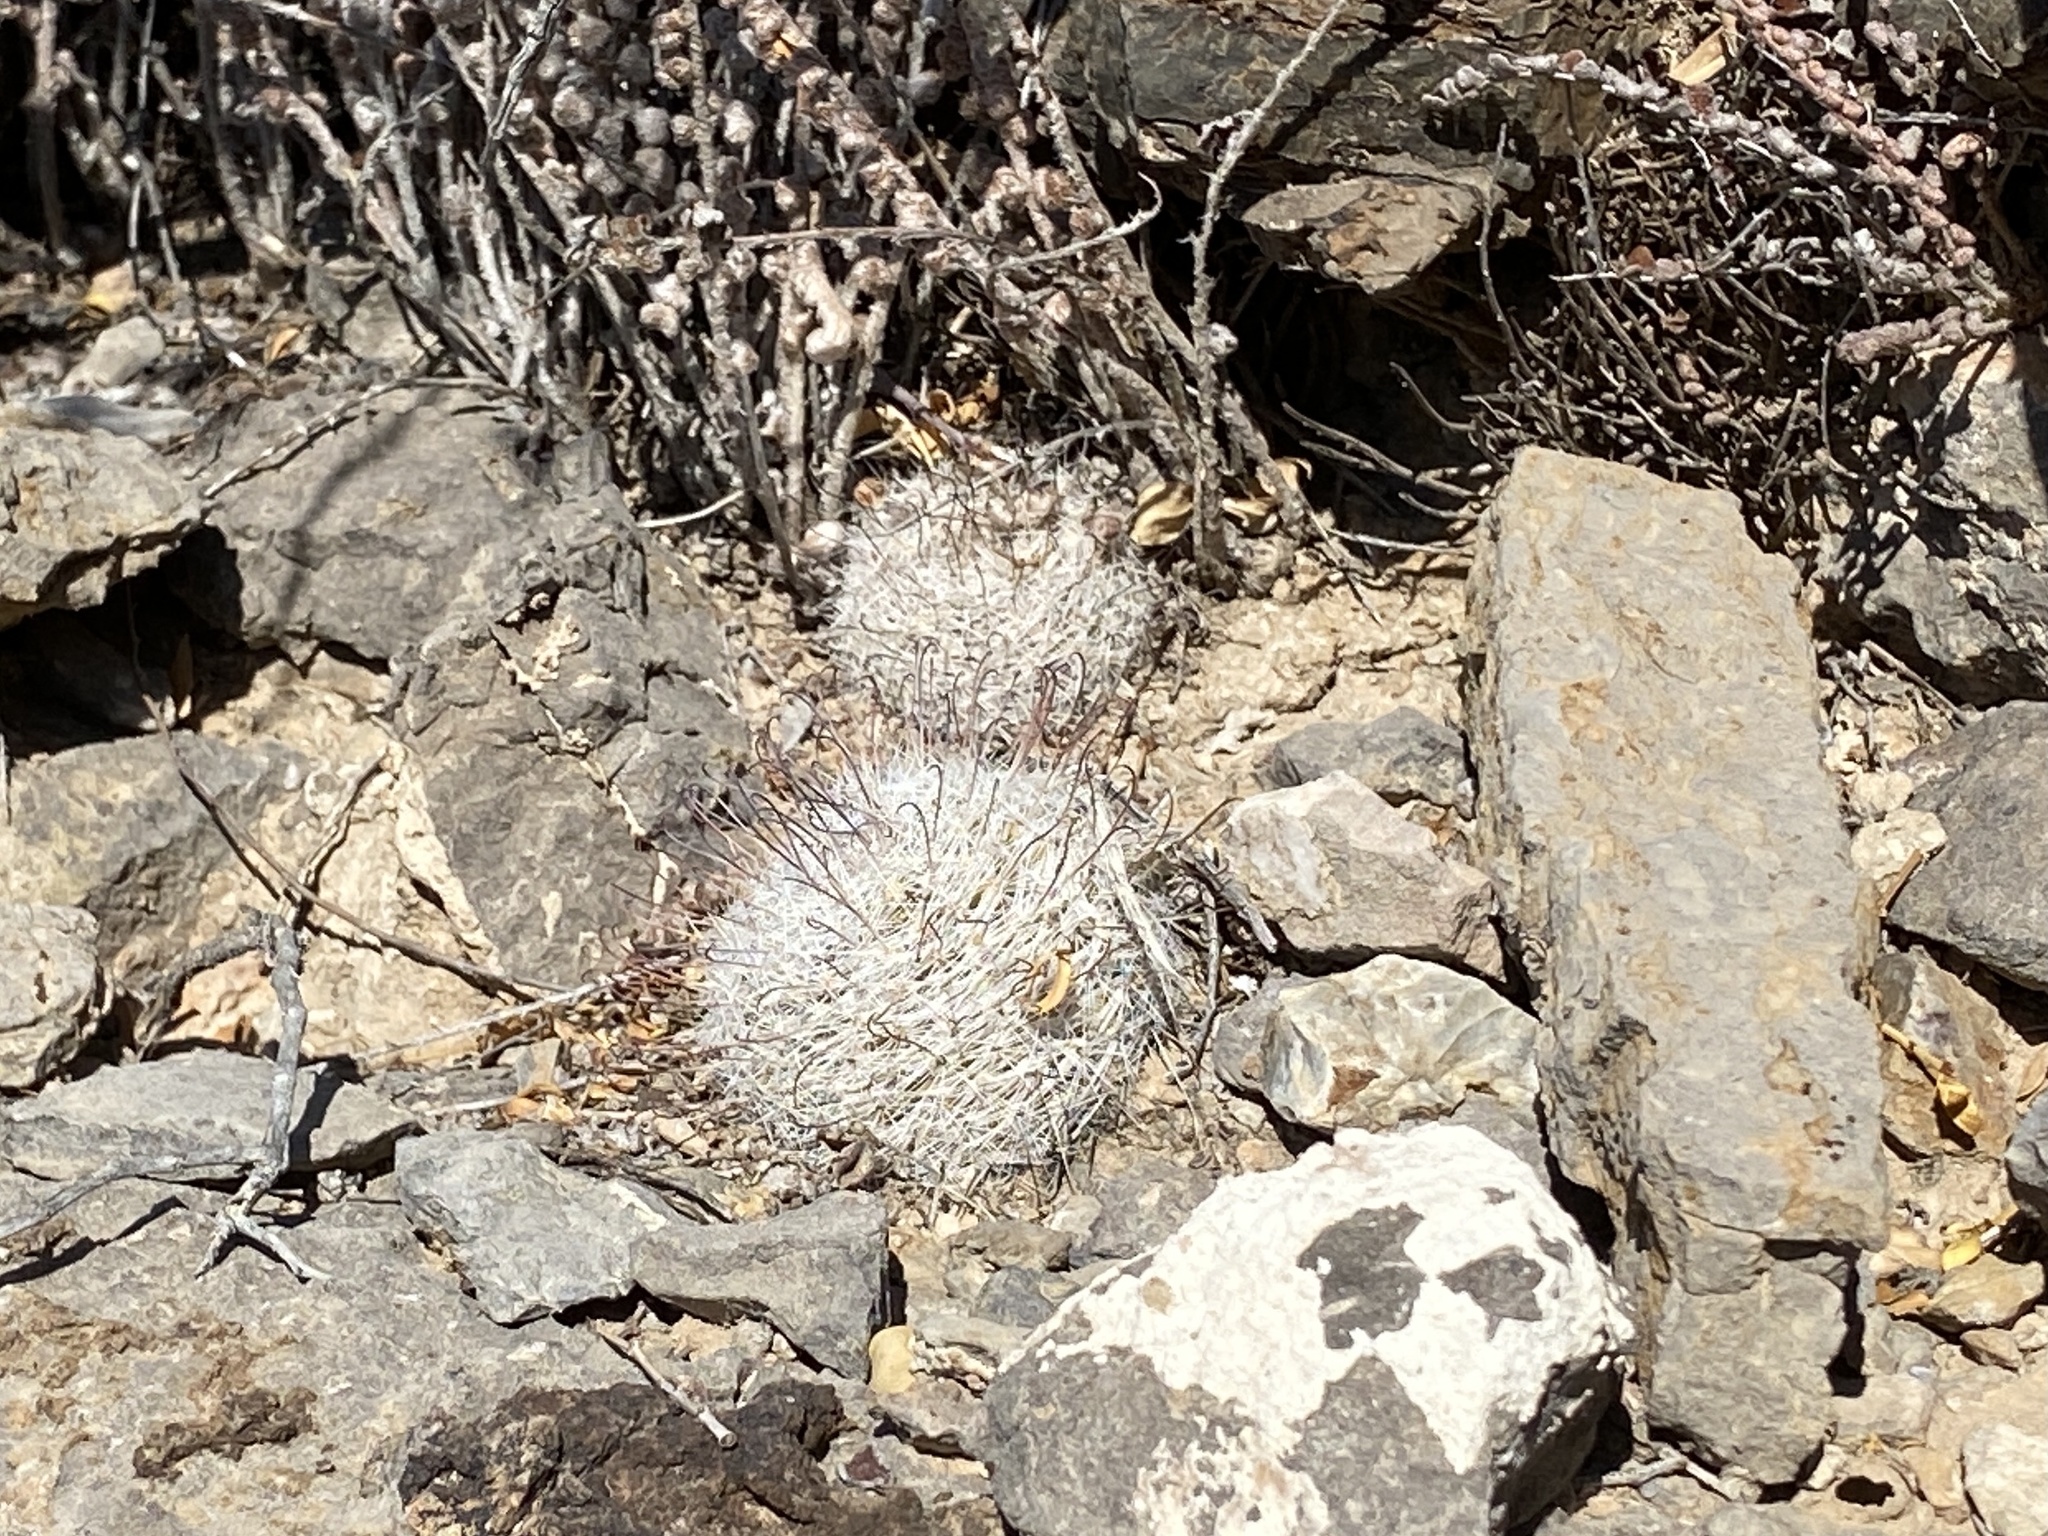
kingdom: Plantae
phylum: Tracheophyta
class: Magnoliopsida
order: Caryophyllales
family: Cactaceae
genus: Cochemiea
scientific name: Cochemiea grahamii
